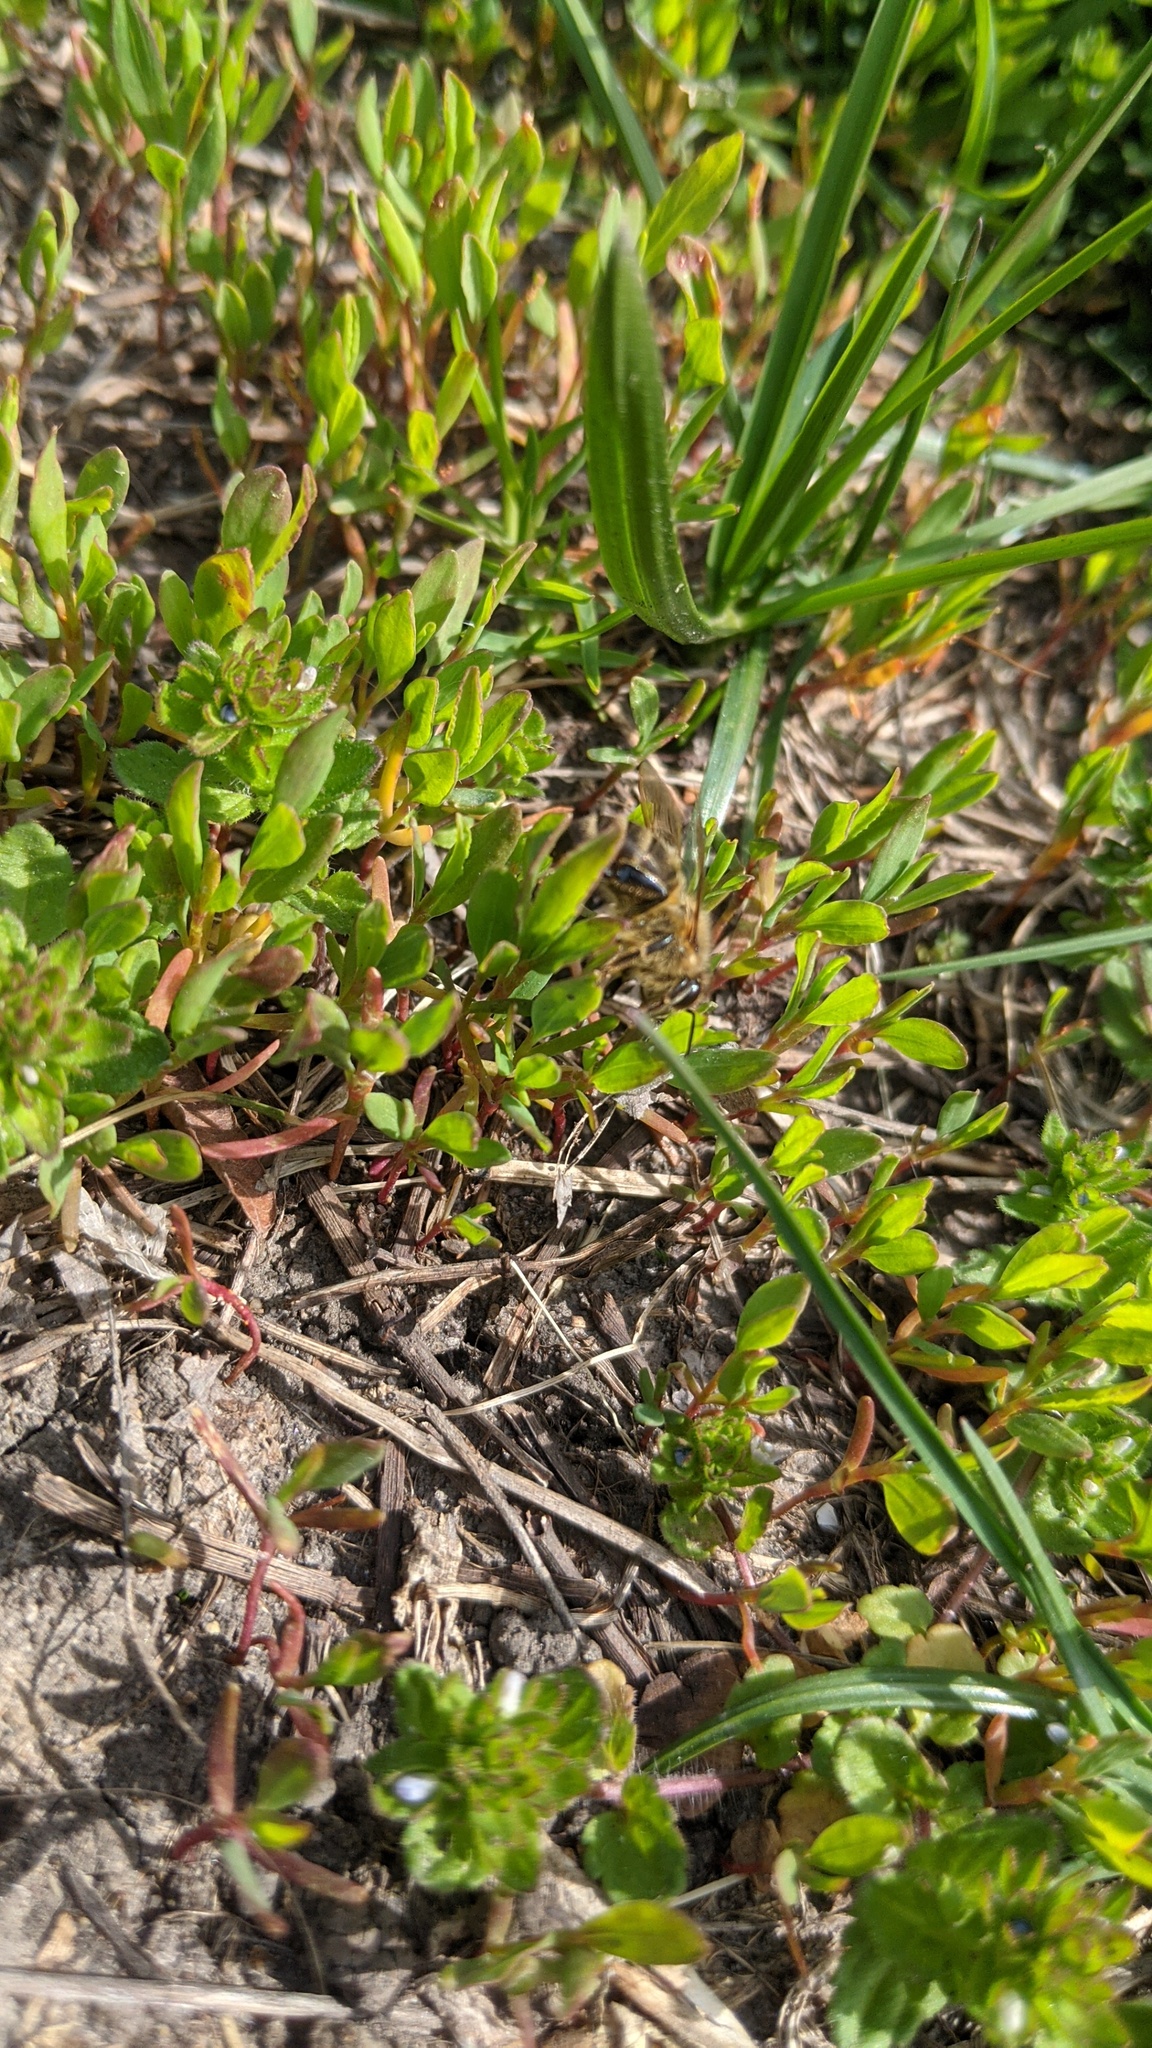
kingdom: Plantae
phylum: Tracheophyta
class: Magnoliopsida
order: Caryophyllales
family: Portulacaceae
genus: Portulaca
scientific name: Portulaca oleracea
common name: Common purslane
